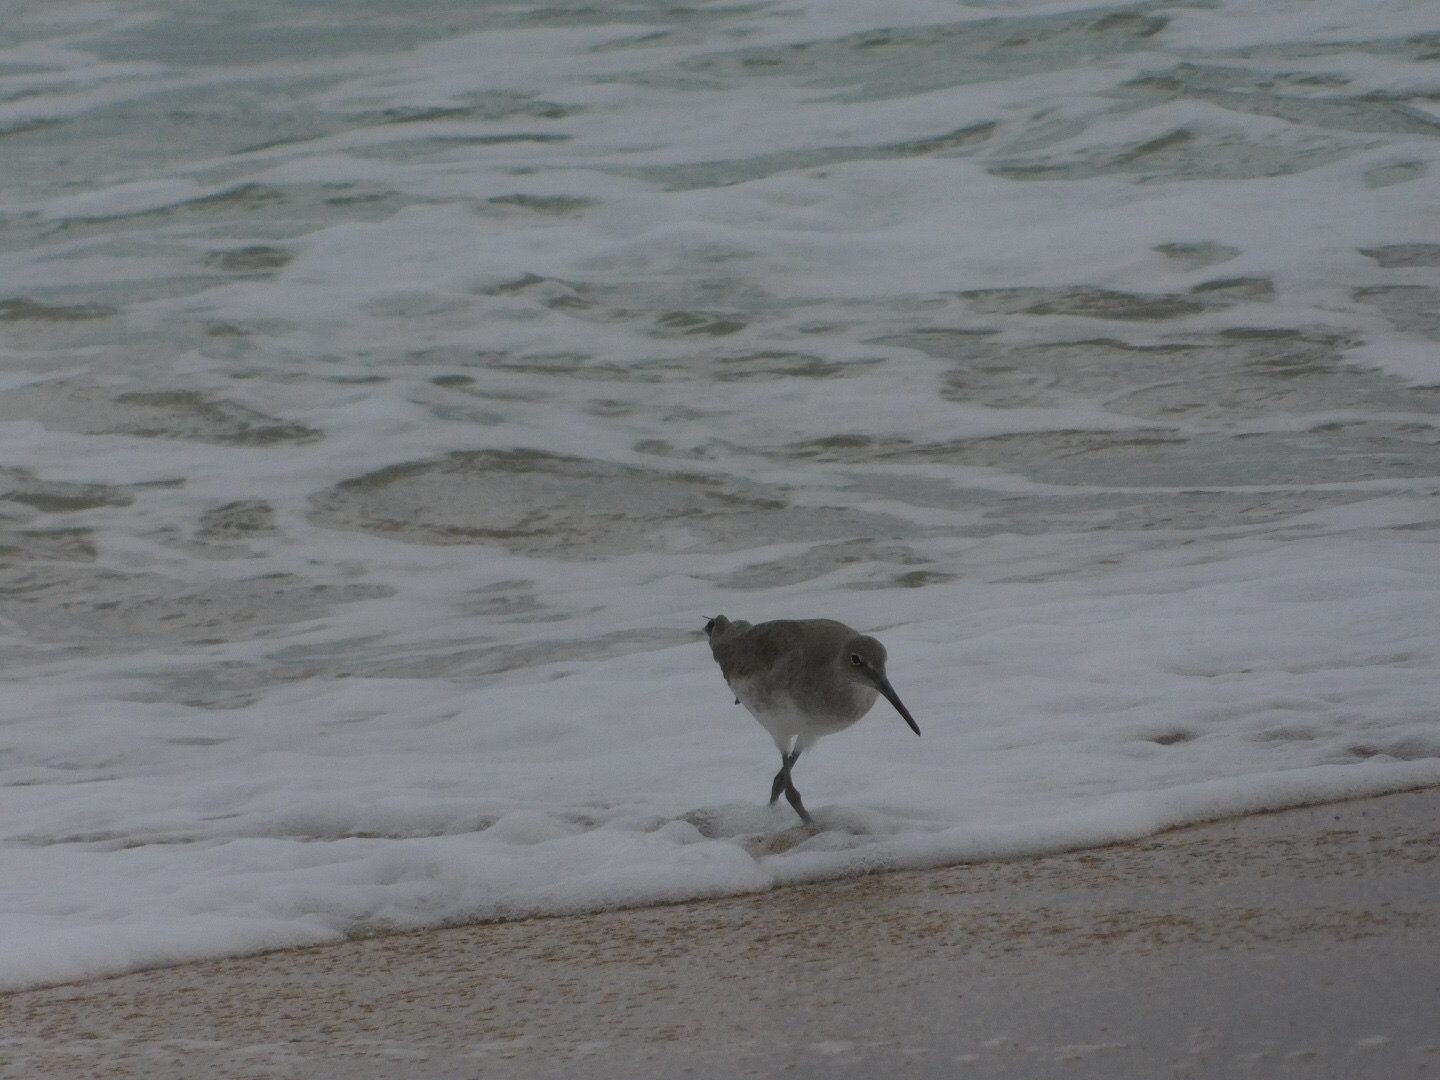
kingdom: Animalia
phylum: Chordata
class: Aves
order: Charadriiformes
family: Scolopacidae
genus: Tringa
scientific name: Tringa semipalmata
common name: Willet
